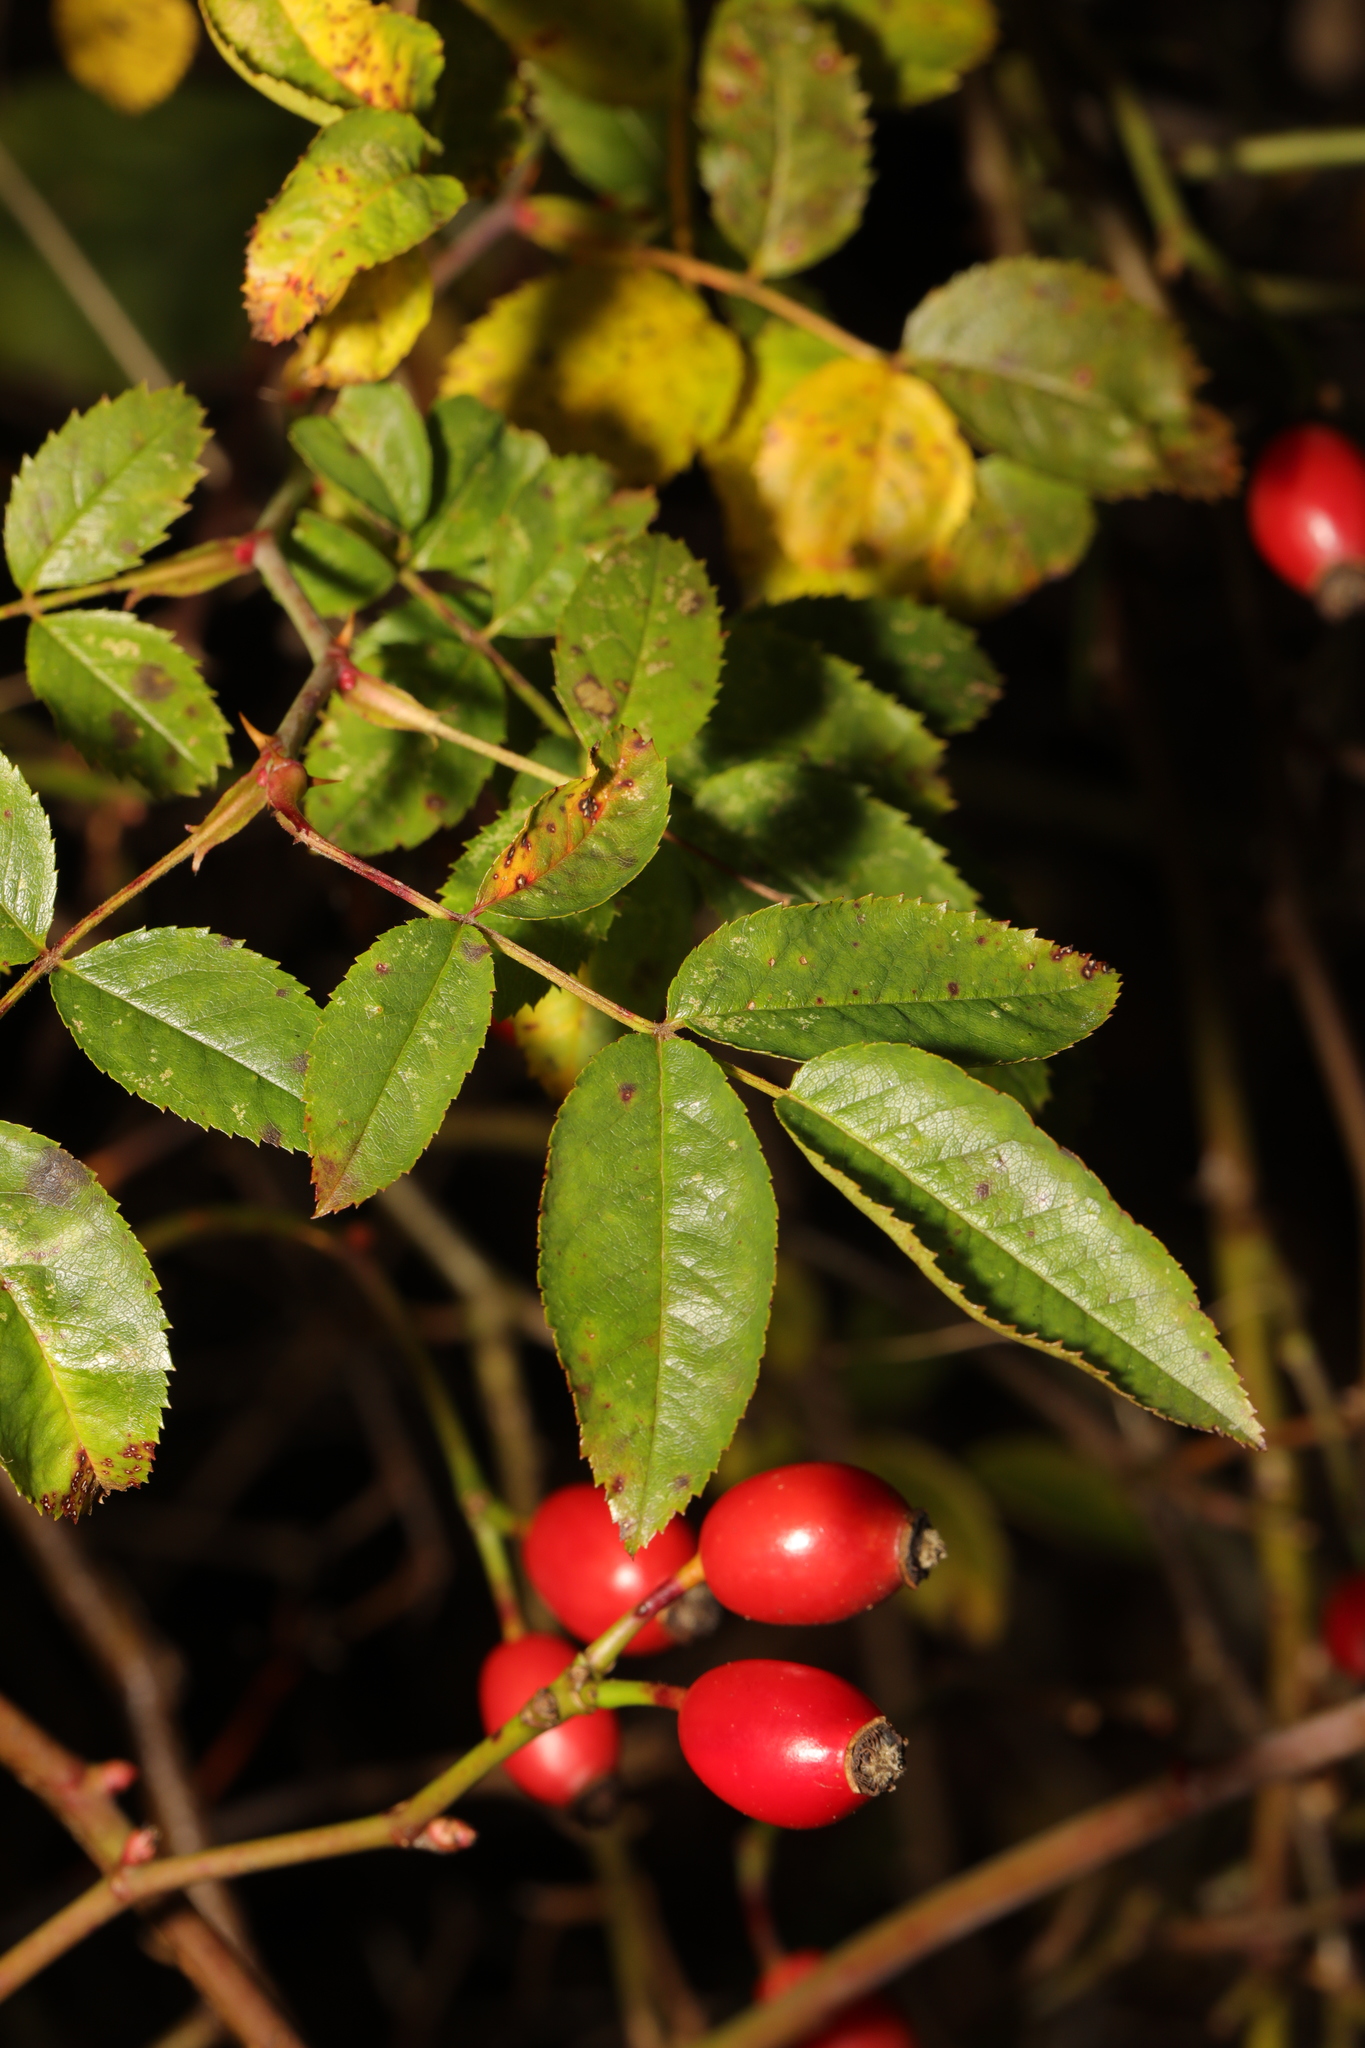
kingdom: Plantae
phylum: Tracheophyta
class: Magnoliopsida
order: Rosales
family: Rosaceae
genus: Rosa
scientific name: Rosa canina
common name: Dog rose
